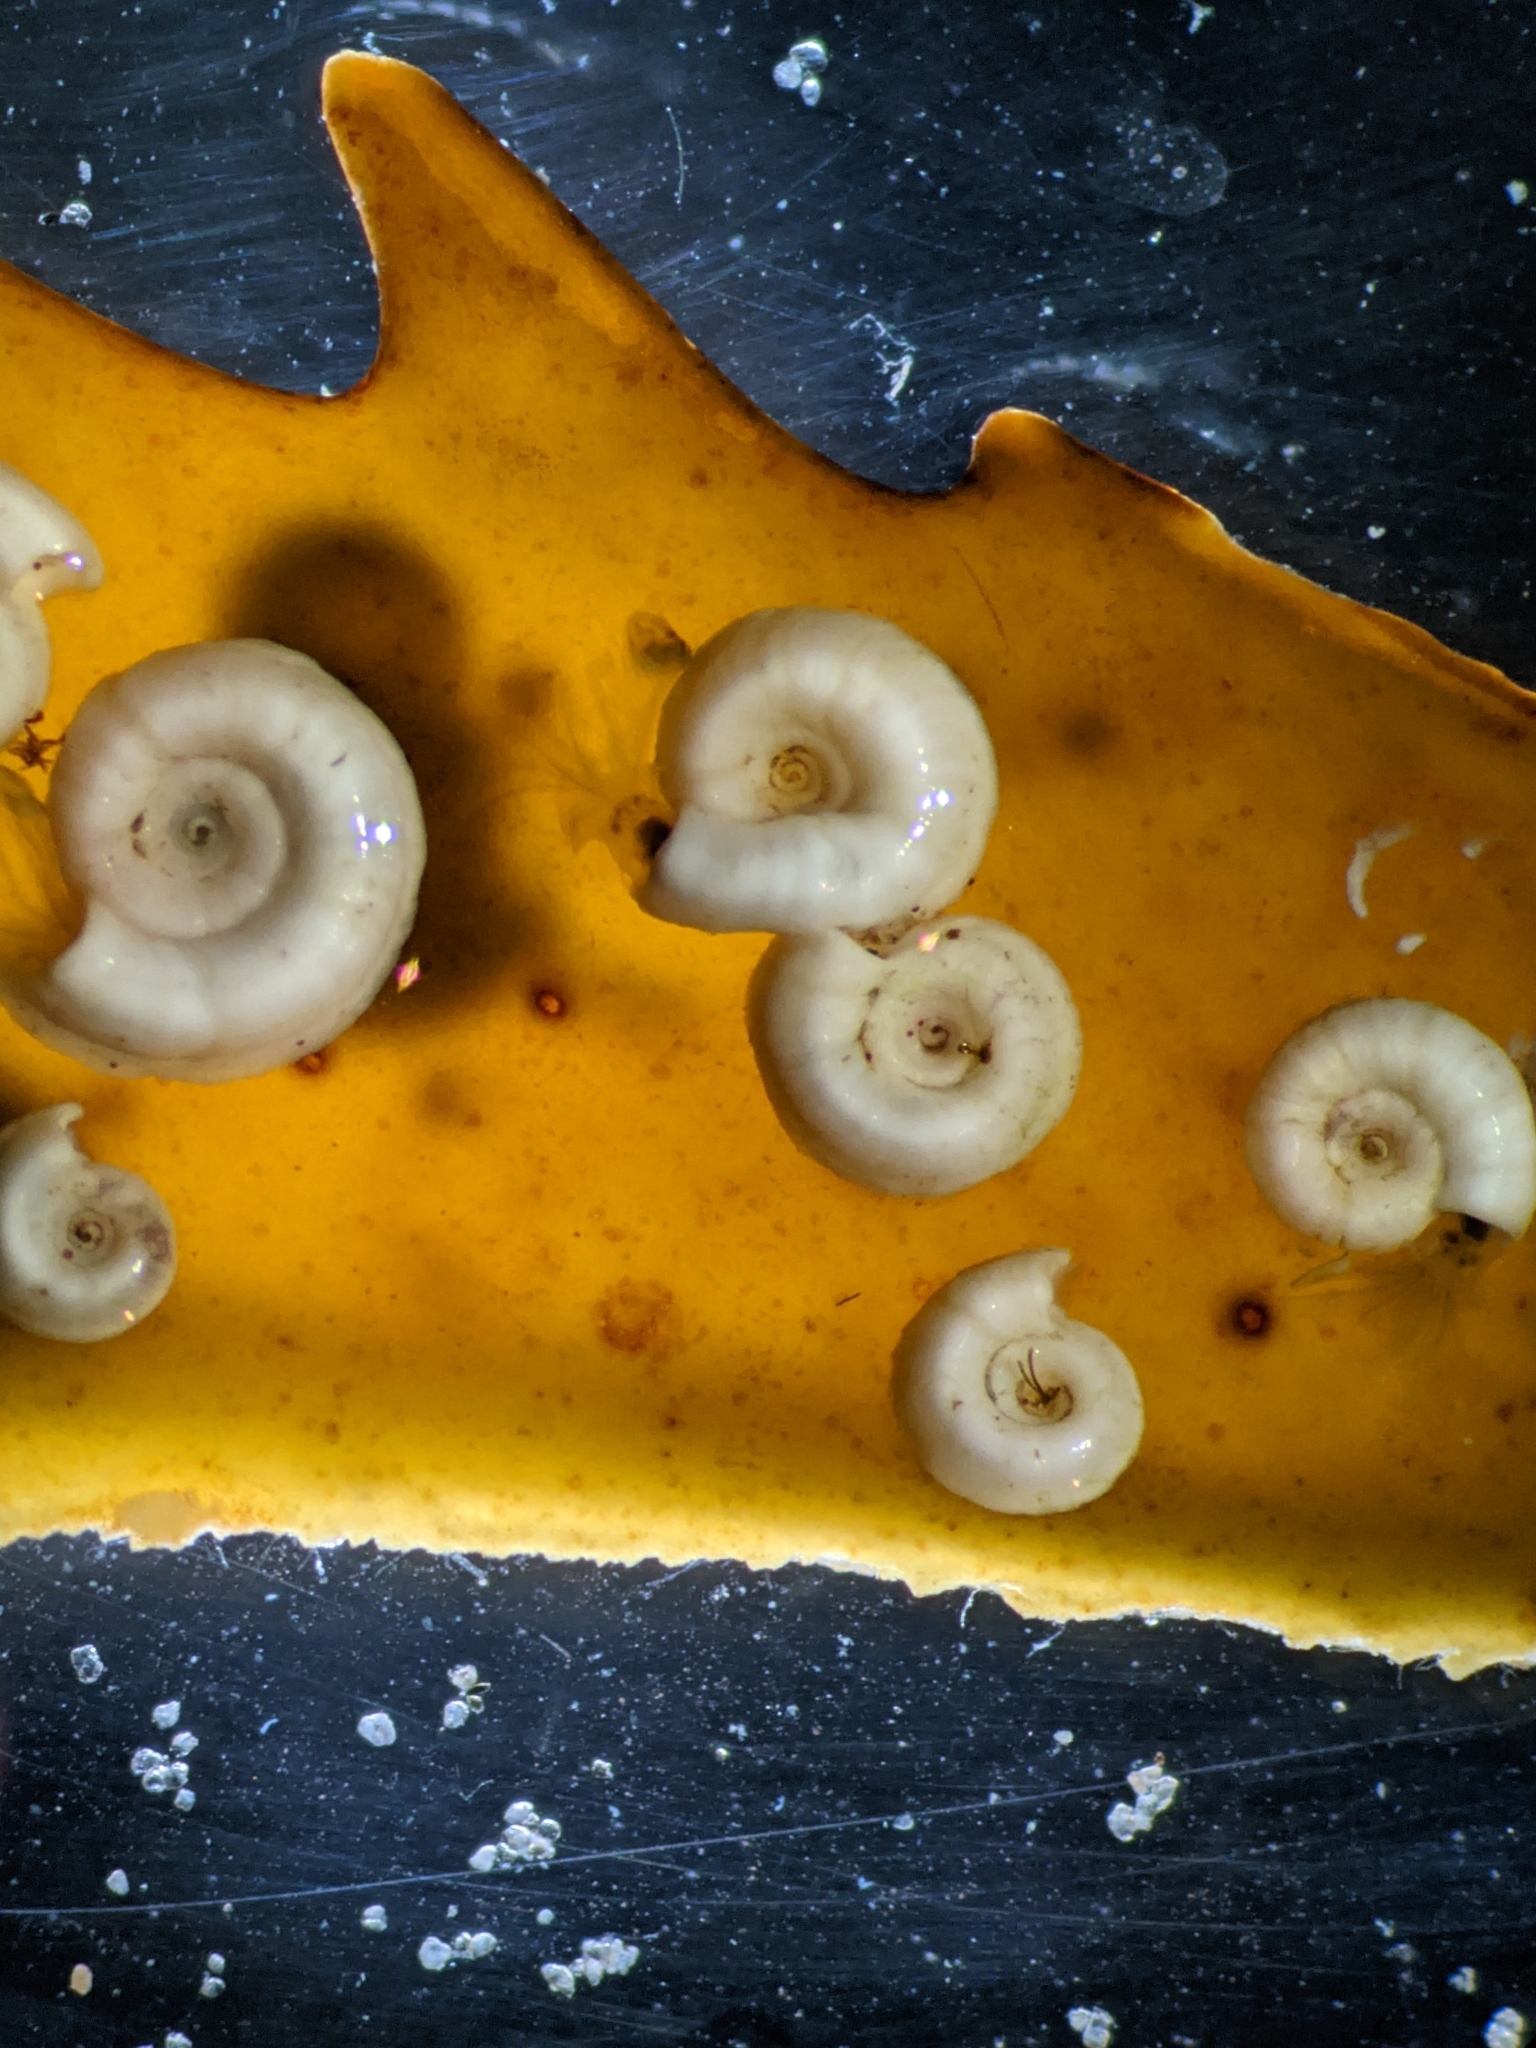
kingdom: Animalia
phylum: Annelida
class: Polychaeta
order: Sabellida
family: Serpulidae
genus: Spirorbis
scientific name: Spirorbis spirorbis
